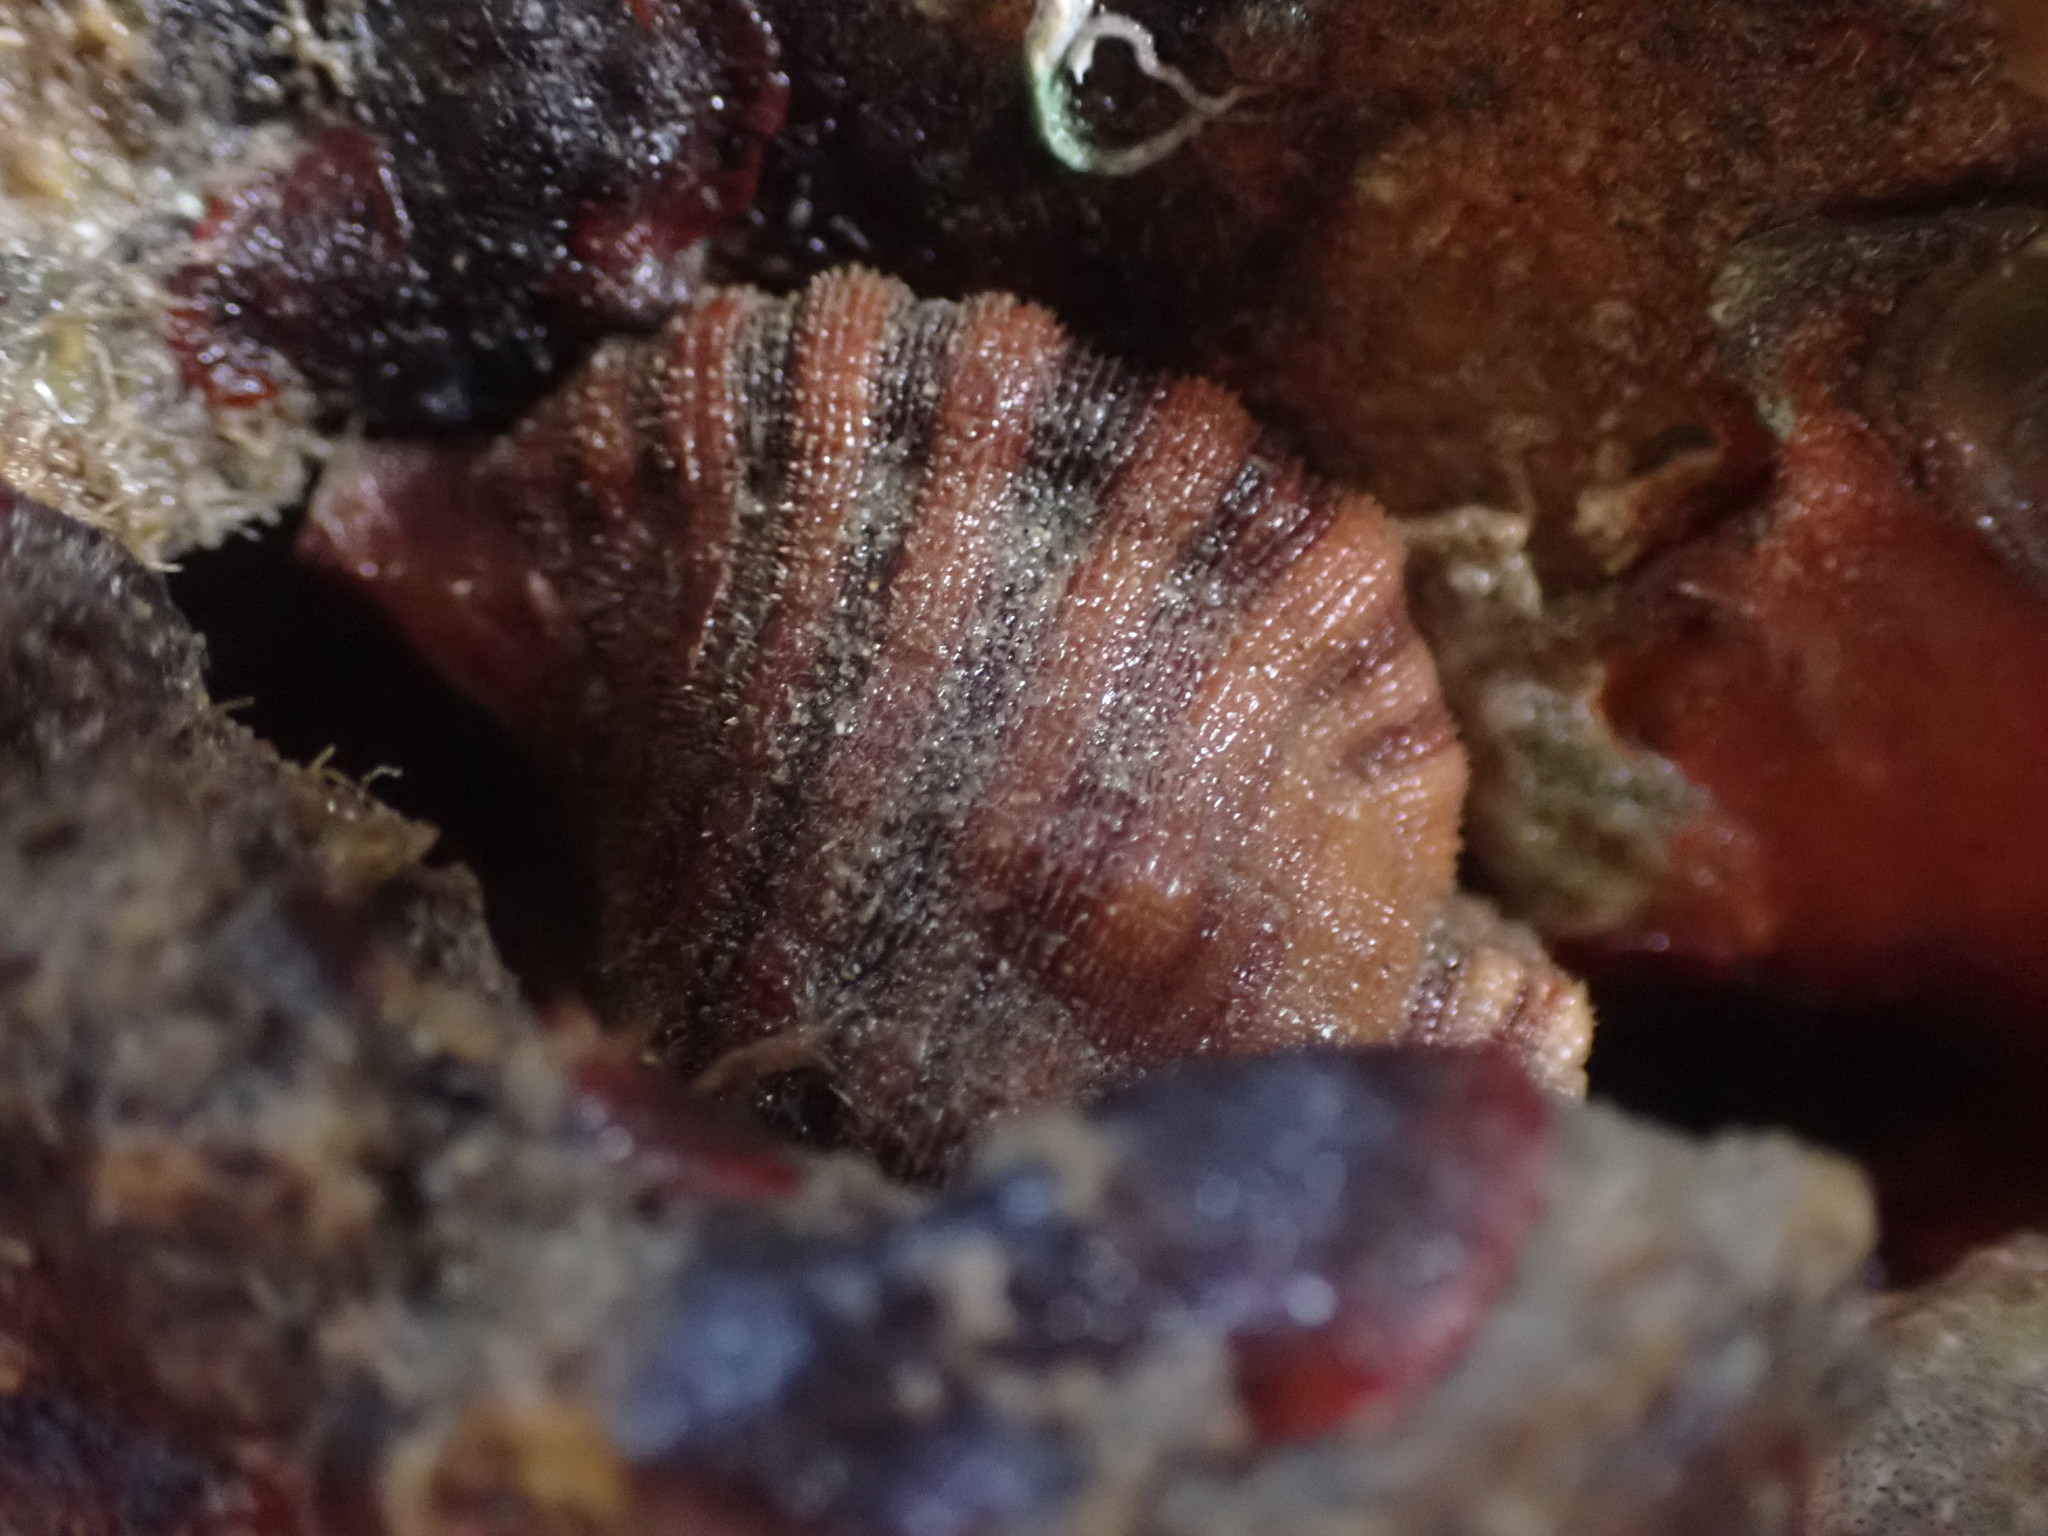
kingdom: Animalia
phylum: Mollusca
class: Gastropoda
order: Littorinimorpha
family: Cymatiidae
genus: Cabestana
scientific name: Cabestana spengleri
